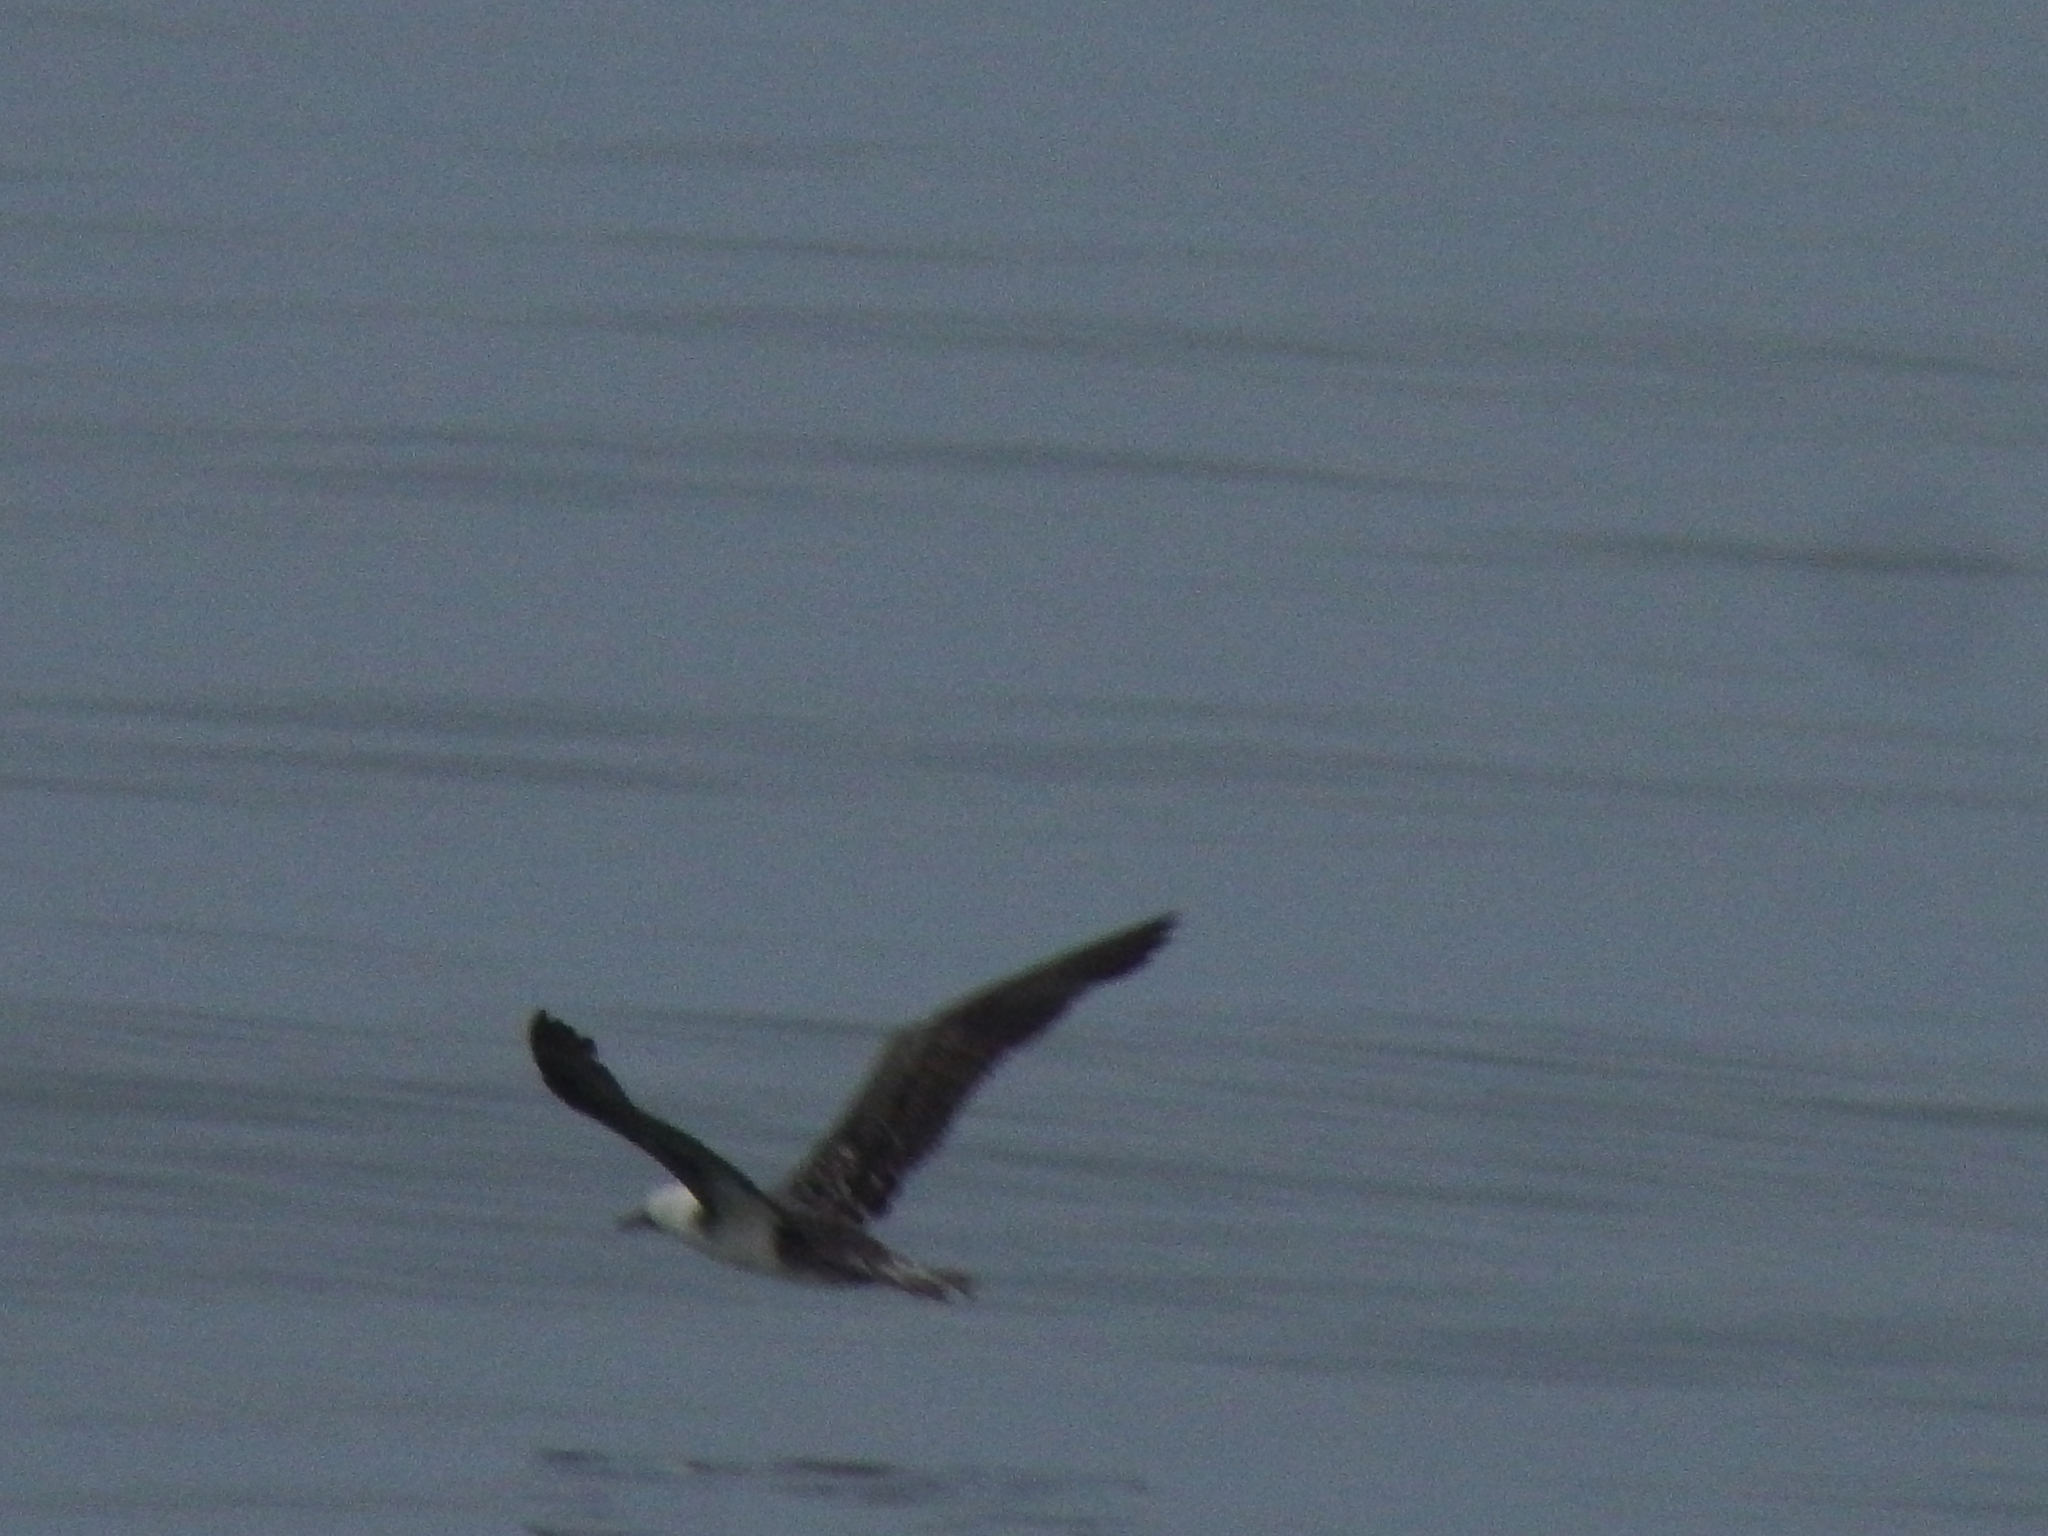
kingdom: Animalia
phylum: Chordata
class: Aves
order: Suliformes
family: Sulidae
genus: Sula
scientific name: Sula variegata
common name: Peruvian booby
